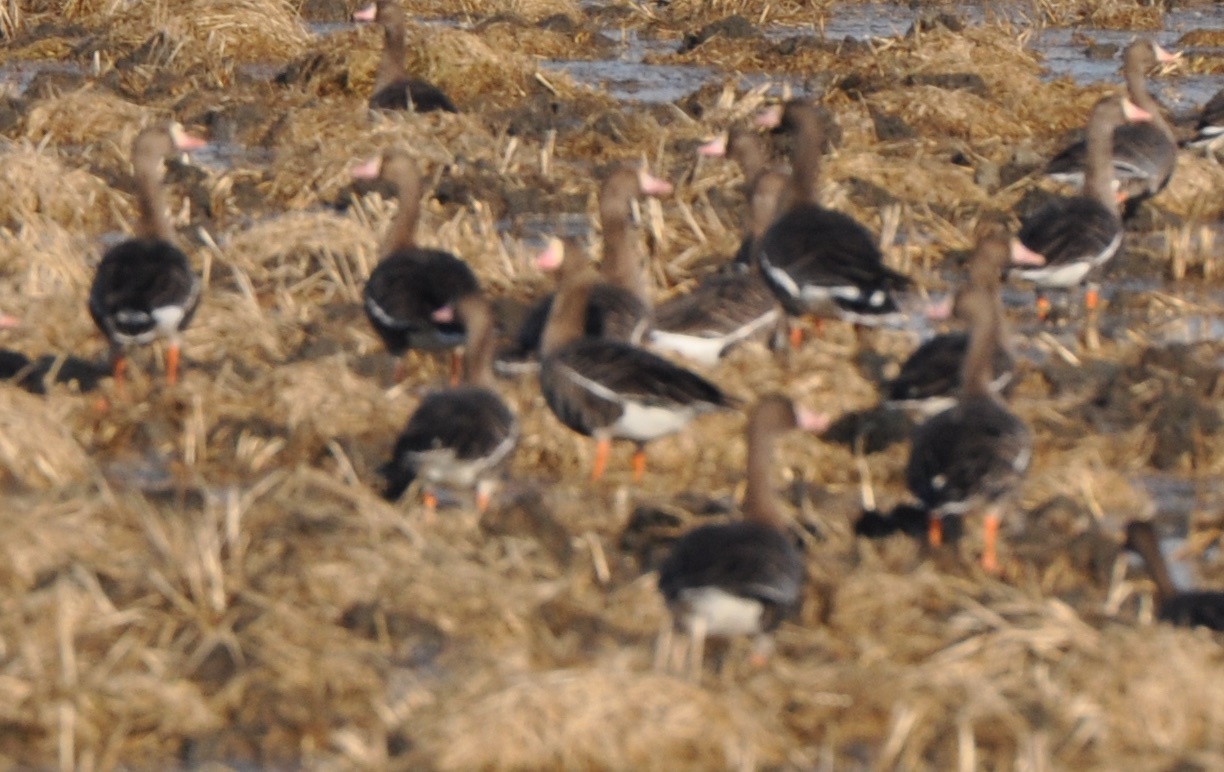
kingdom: Animalia
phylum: Chordata
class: Aves
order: Anseriformes
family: Anatidae
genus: Anser
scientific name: Anser albifrons
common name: Greater white-fronted goose
